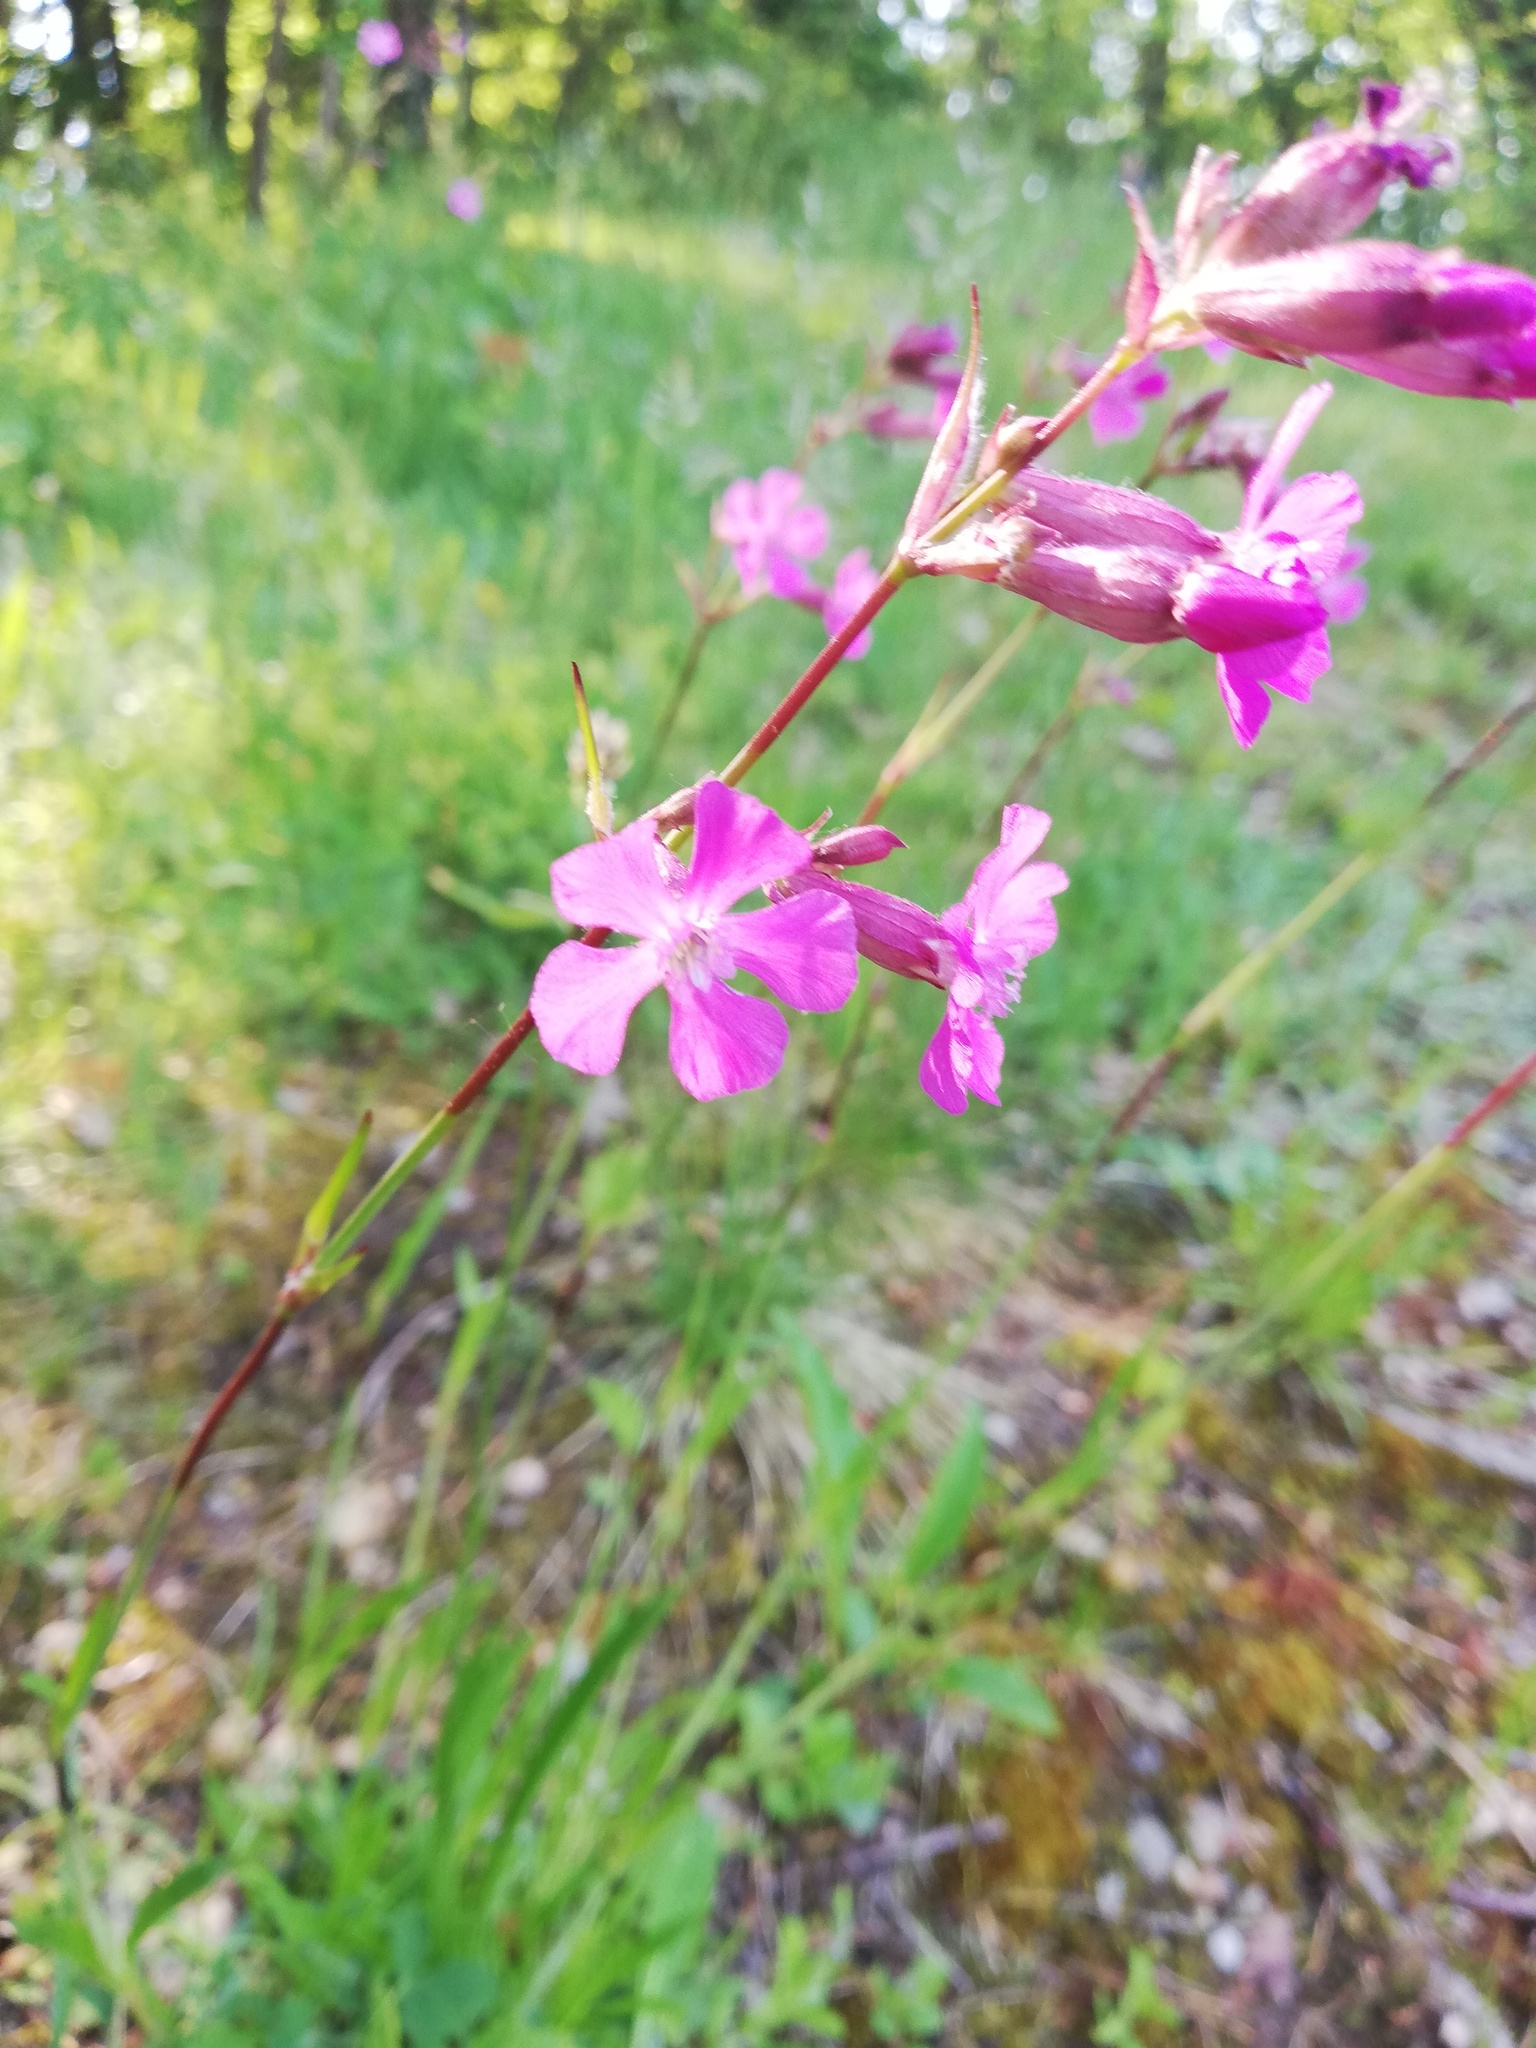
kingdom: Plantae
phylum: Tracheophyta
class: Magnoliopsida
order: Caryophyllales
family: Caryophyllaceae
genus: Viscaria
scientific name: Viscaria vulgaris
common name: Clammy campion
